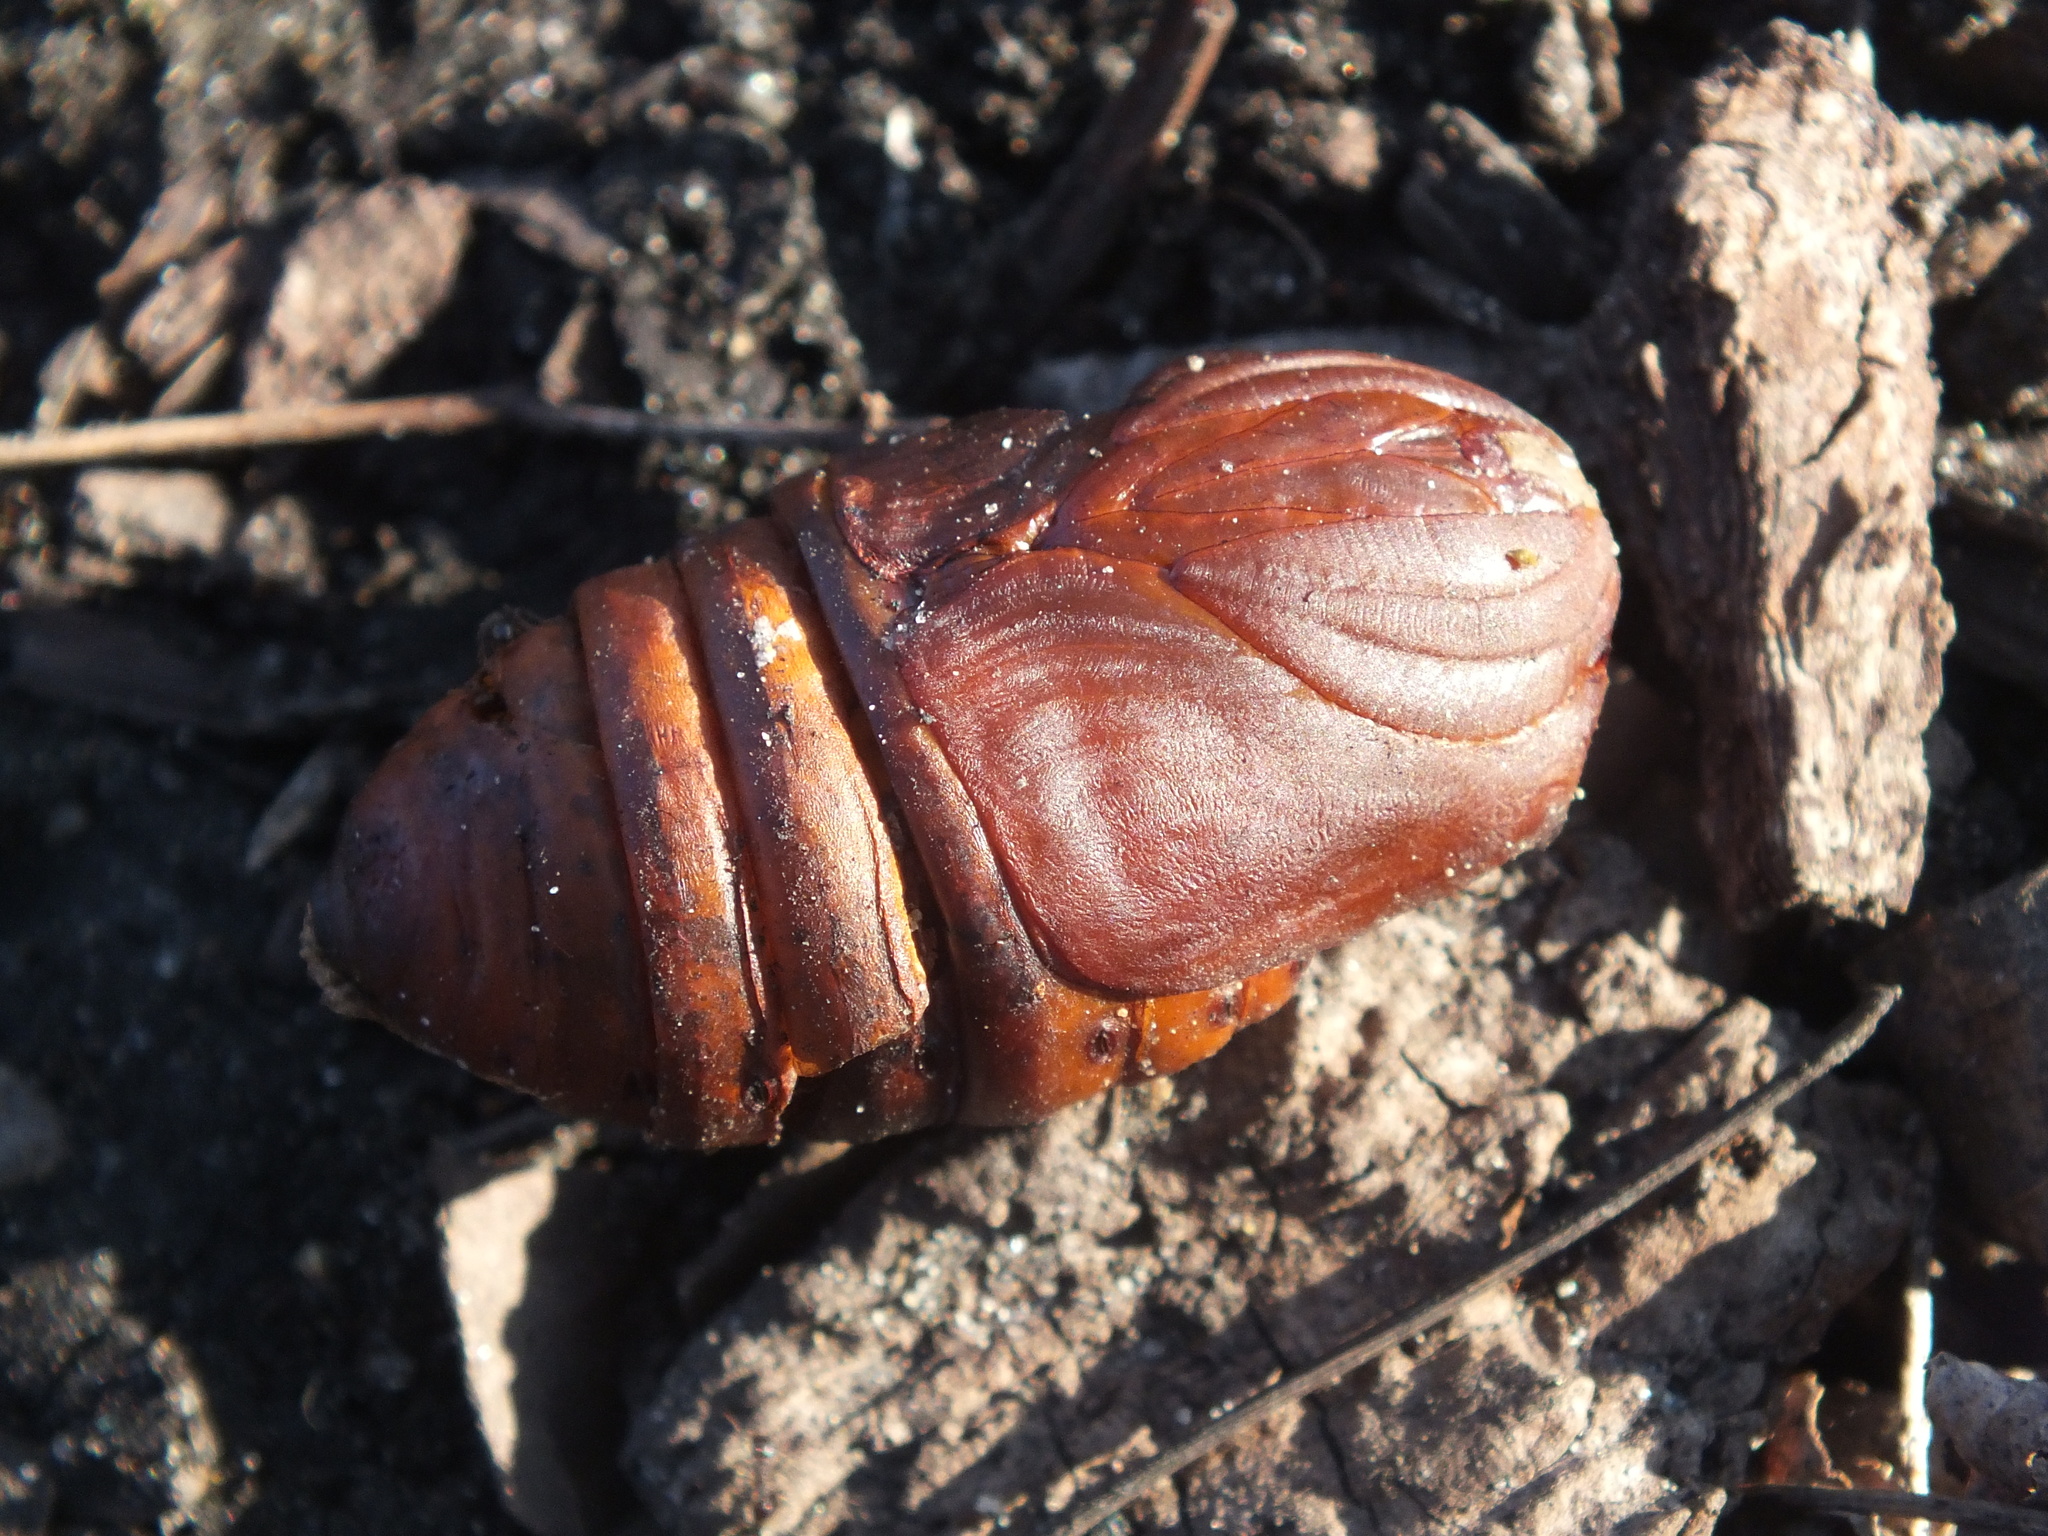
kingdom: Animalia
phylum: Arthropoda
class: Insecta
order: Lepidoptera
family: Saturniidae
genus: Actias
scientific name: Actias luna
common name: Luna moth
